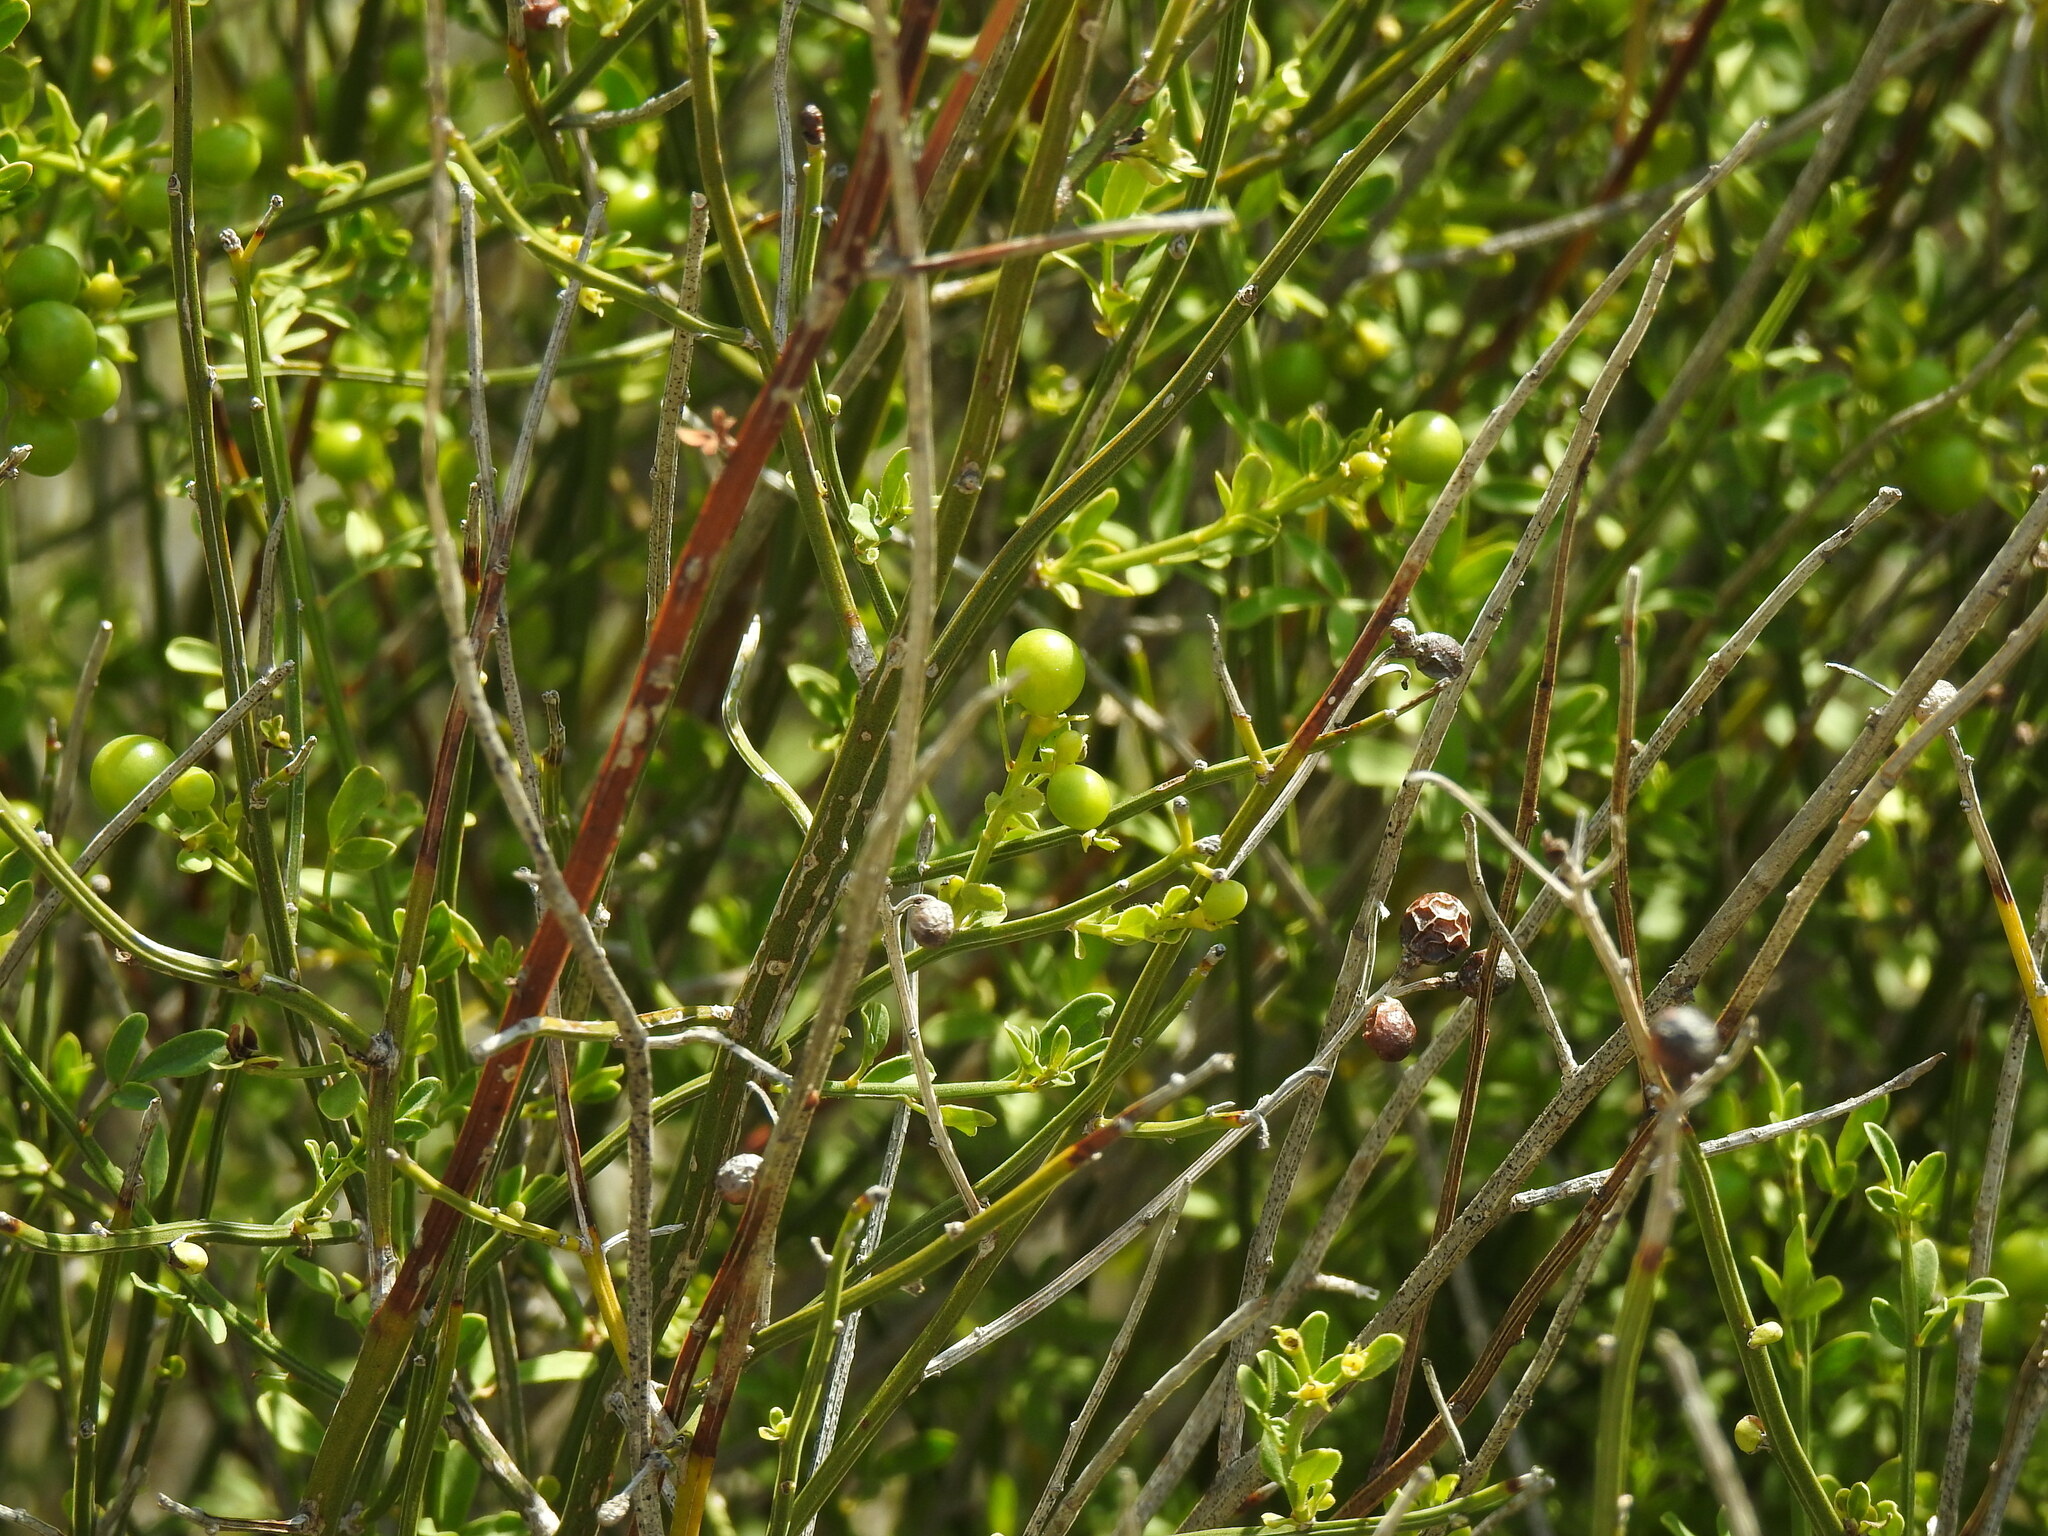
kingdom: Plantae
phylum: Tracheophyta
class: Magnoliopsida
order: Lamiales
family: Oleaceae
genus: Chrysojasminum
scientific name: Chrysojasminum fruticans
